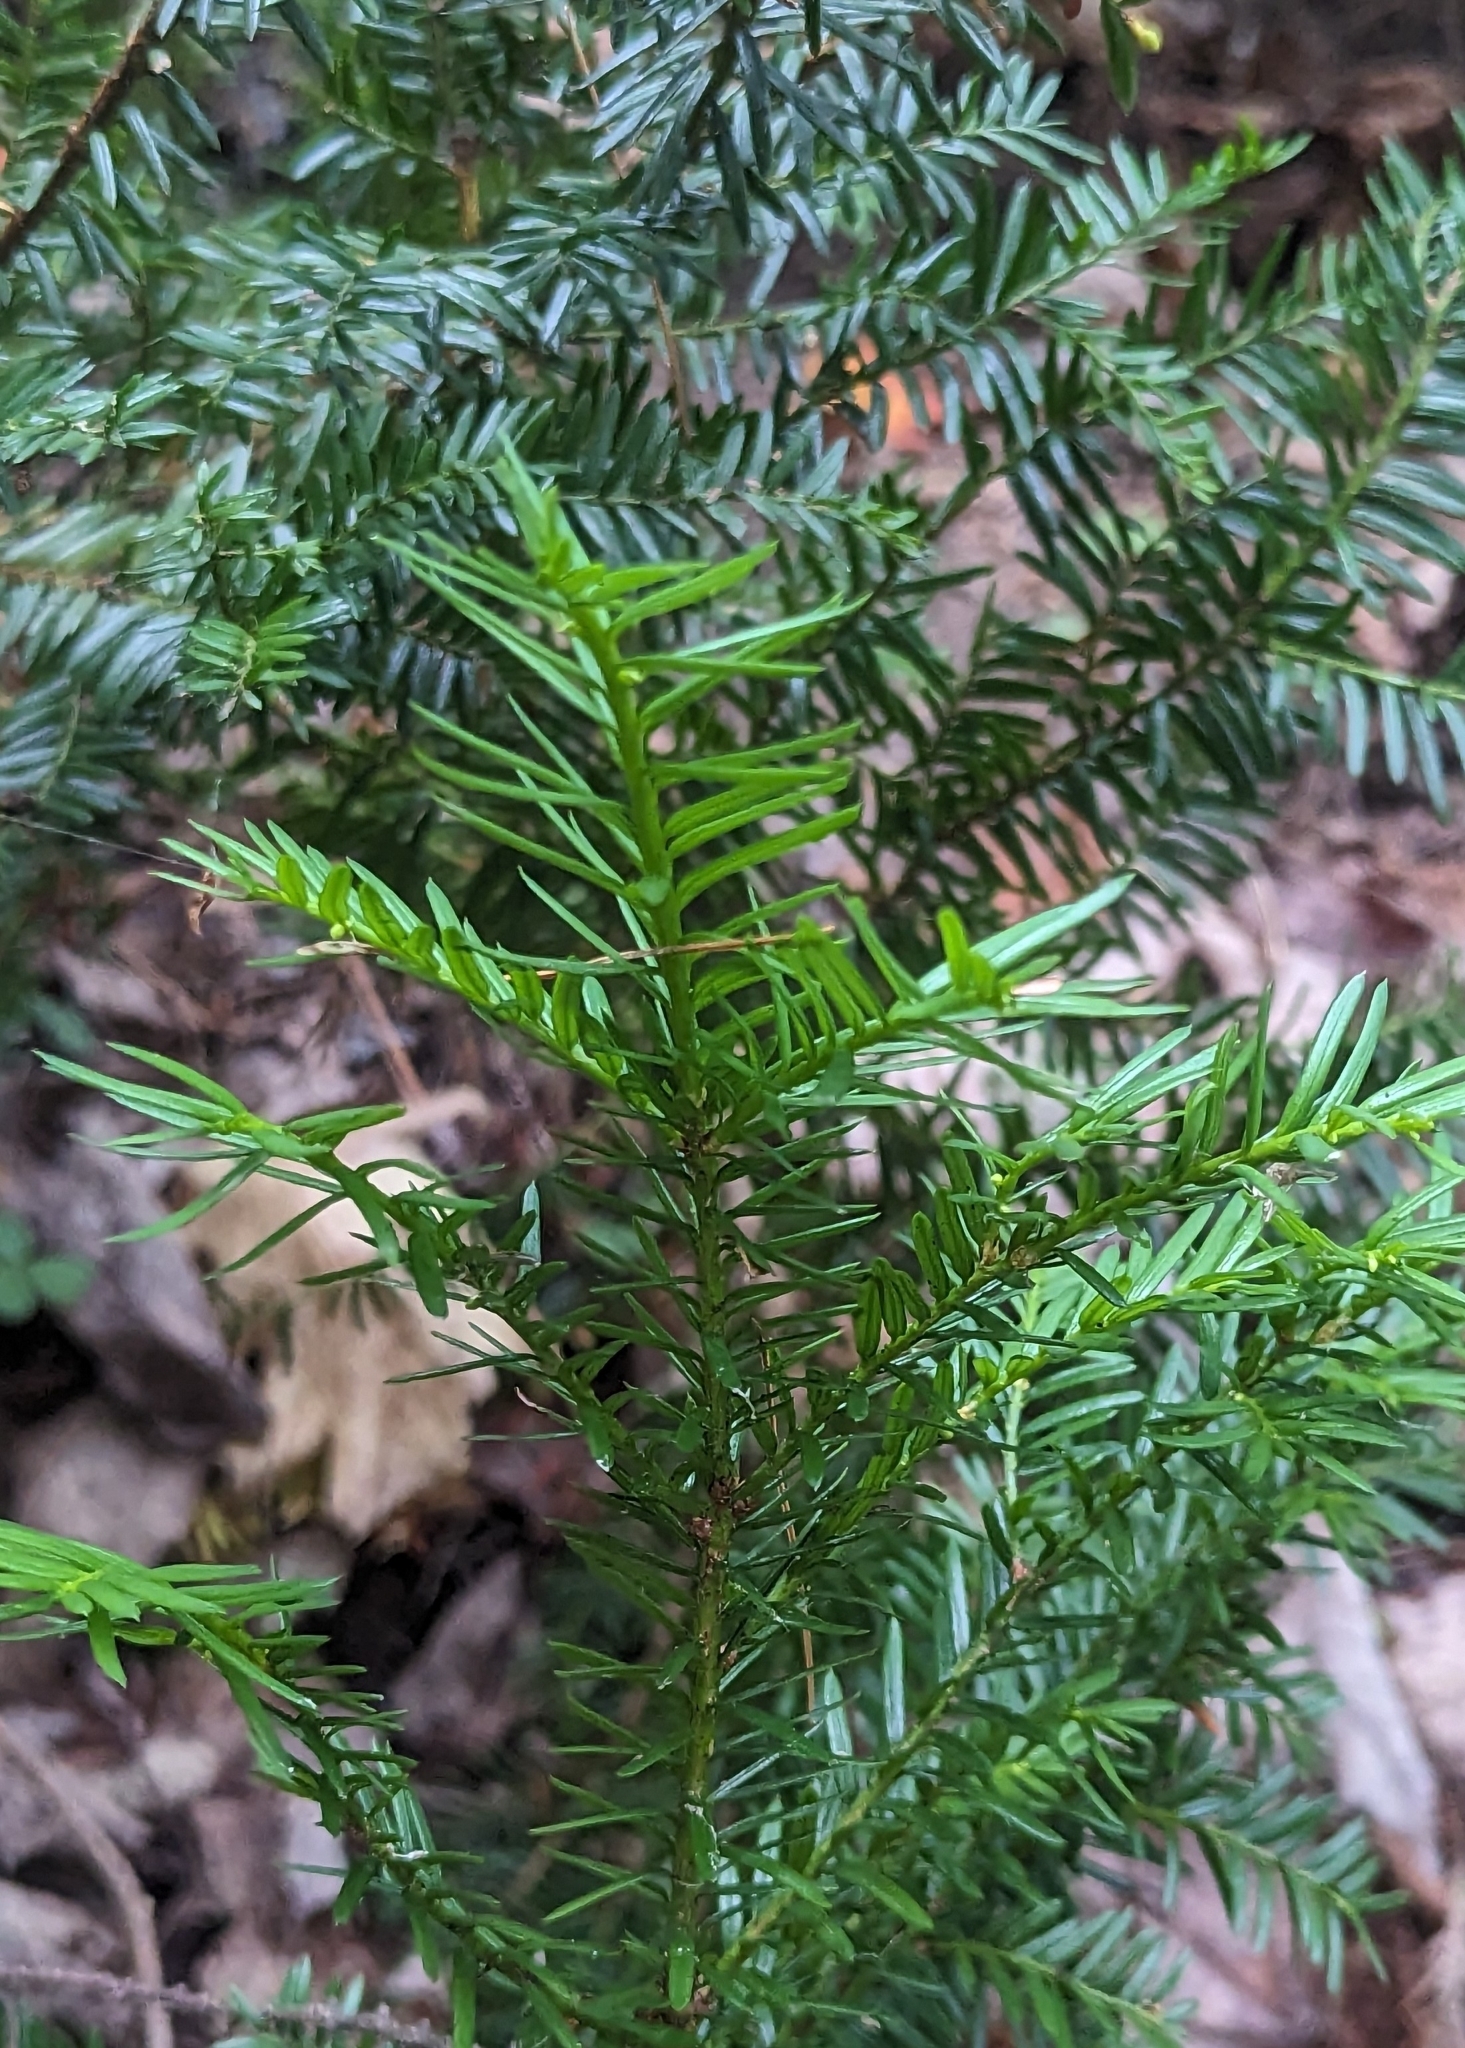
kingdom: Plantae
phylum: Tracheophyta
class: Pinopsida
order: Pinales
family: Taxaceae
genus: Taxus
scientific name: Taxus canadensis
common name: American yew
